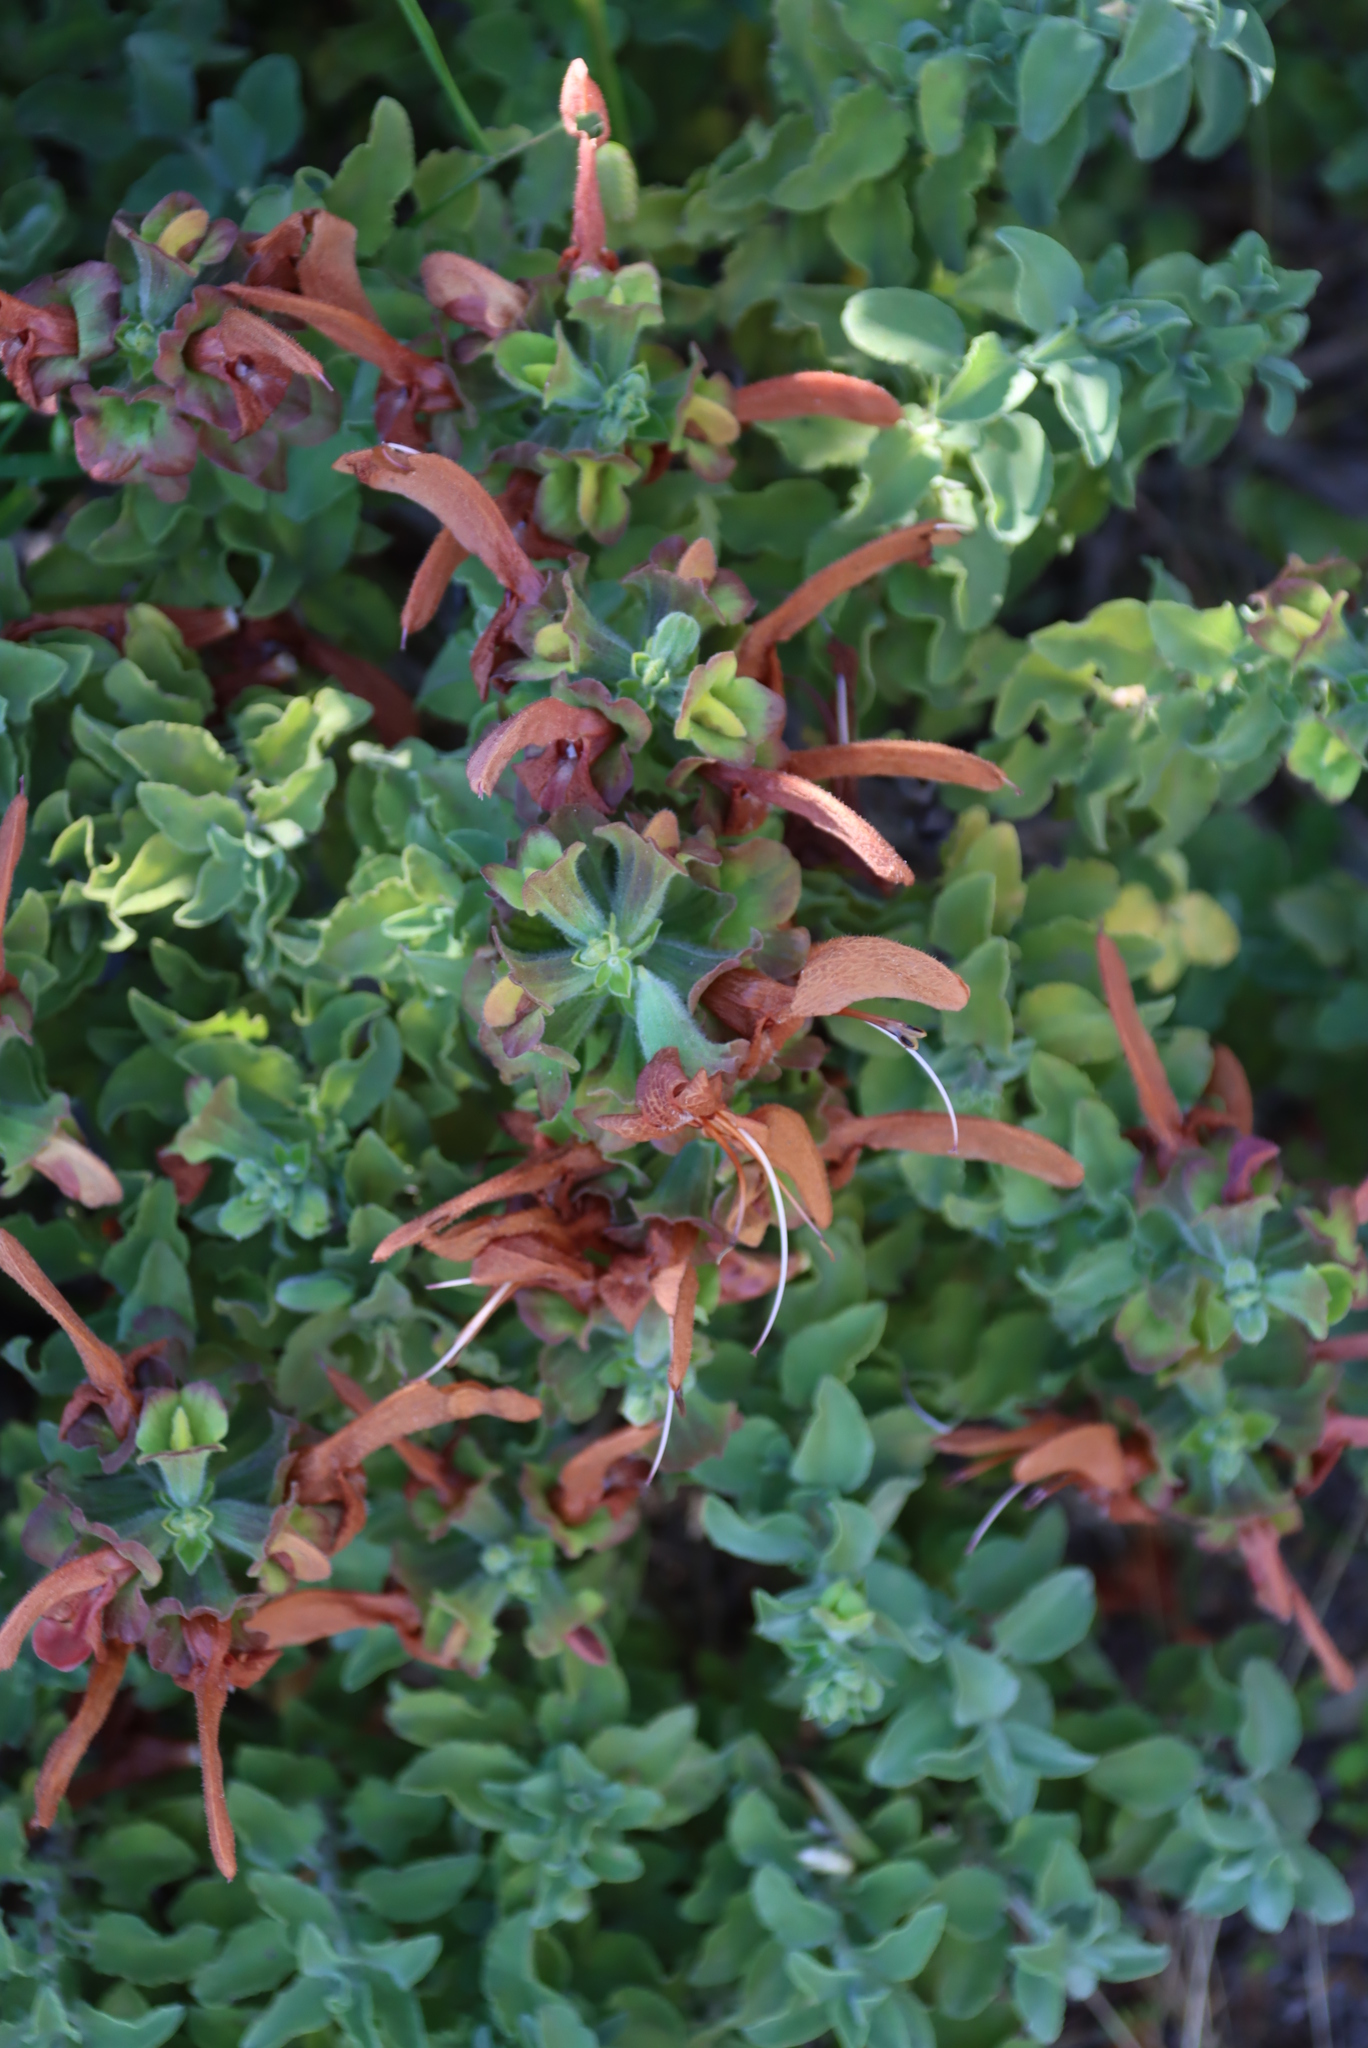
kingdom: Plantae
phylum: Tracheophyta
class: Magnoliopsida
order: Lamiales
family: Lamiaceae
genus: Salvia
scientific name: Salvia aurea
